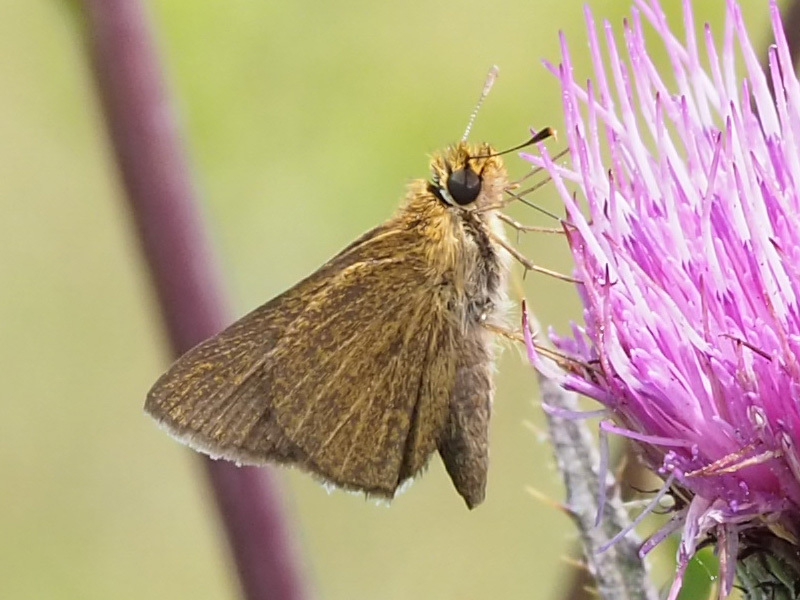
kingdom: Animalia
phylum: Arthropoda
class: Insecta
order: Lepidoptera
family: Hesperiidae
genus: Nastra
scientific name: Nastra lherminier
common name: Swarthy skipper
